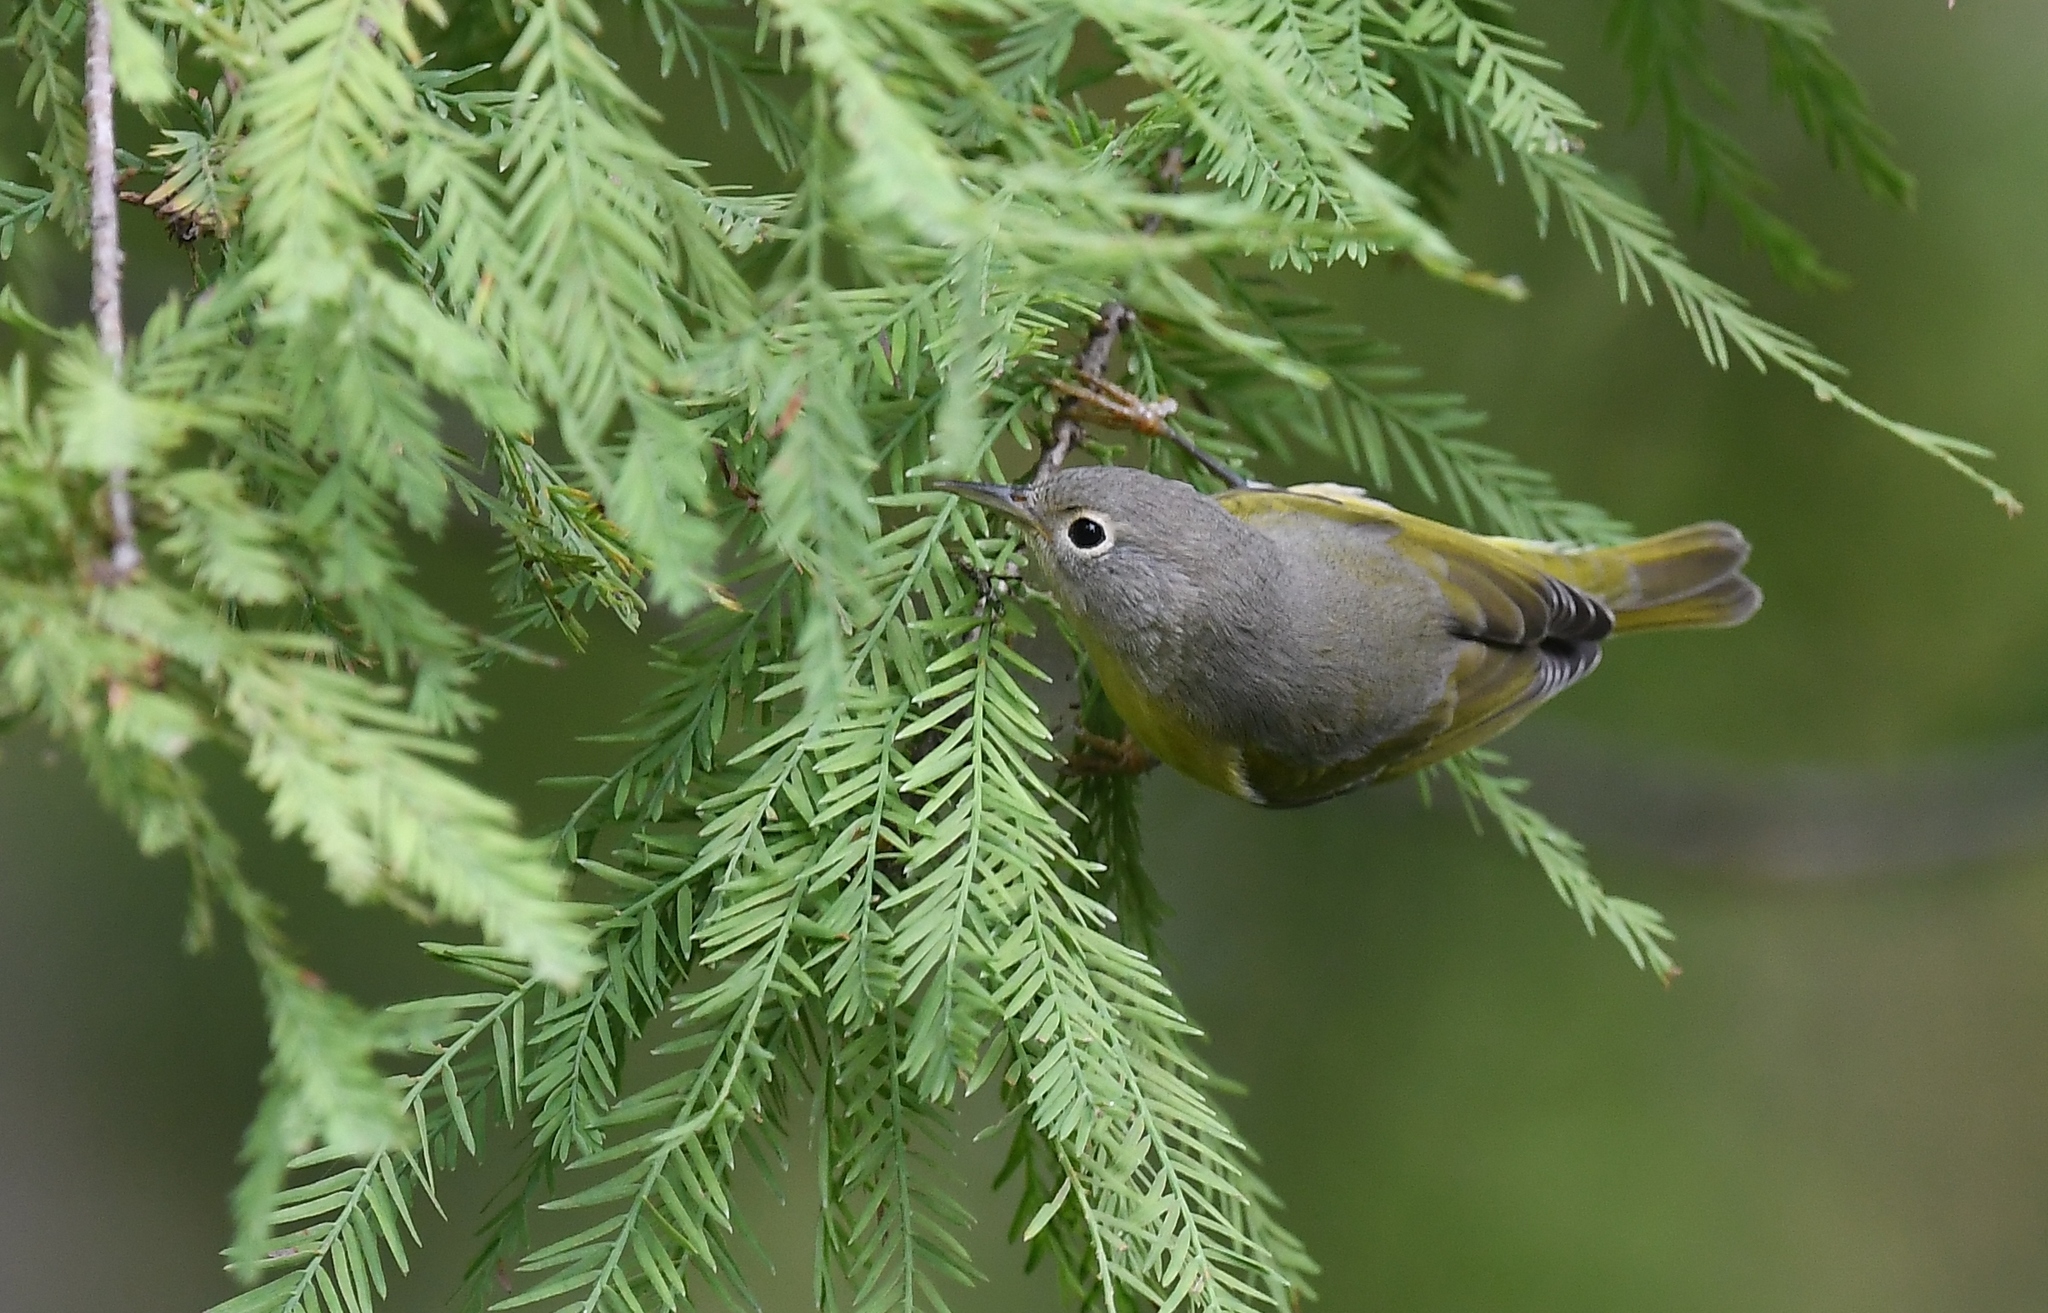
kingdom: Animalia
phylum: Chordata
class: Aves
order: Passeriformes
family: Parulidae
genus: Leiothlypis
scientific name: Leiothlypis ruficapilla
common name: Nashville warbler
